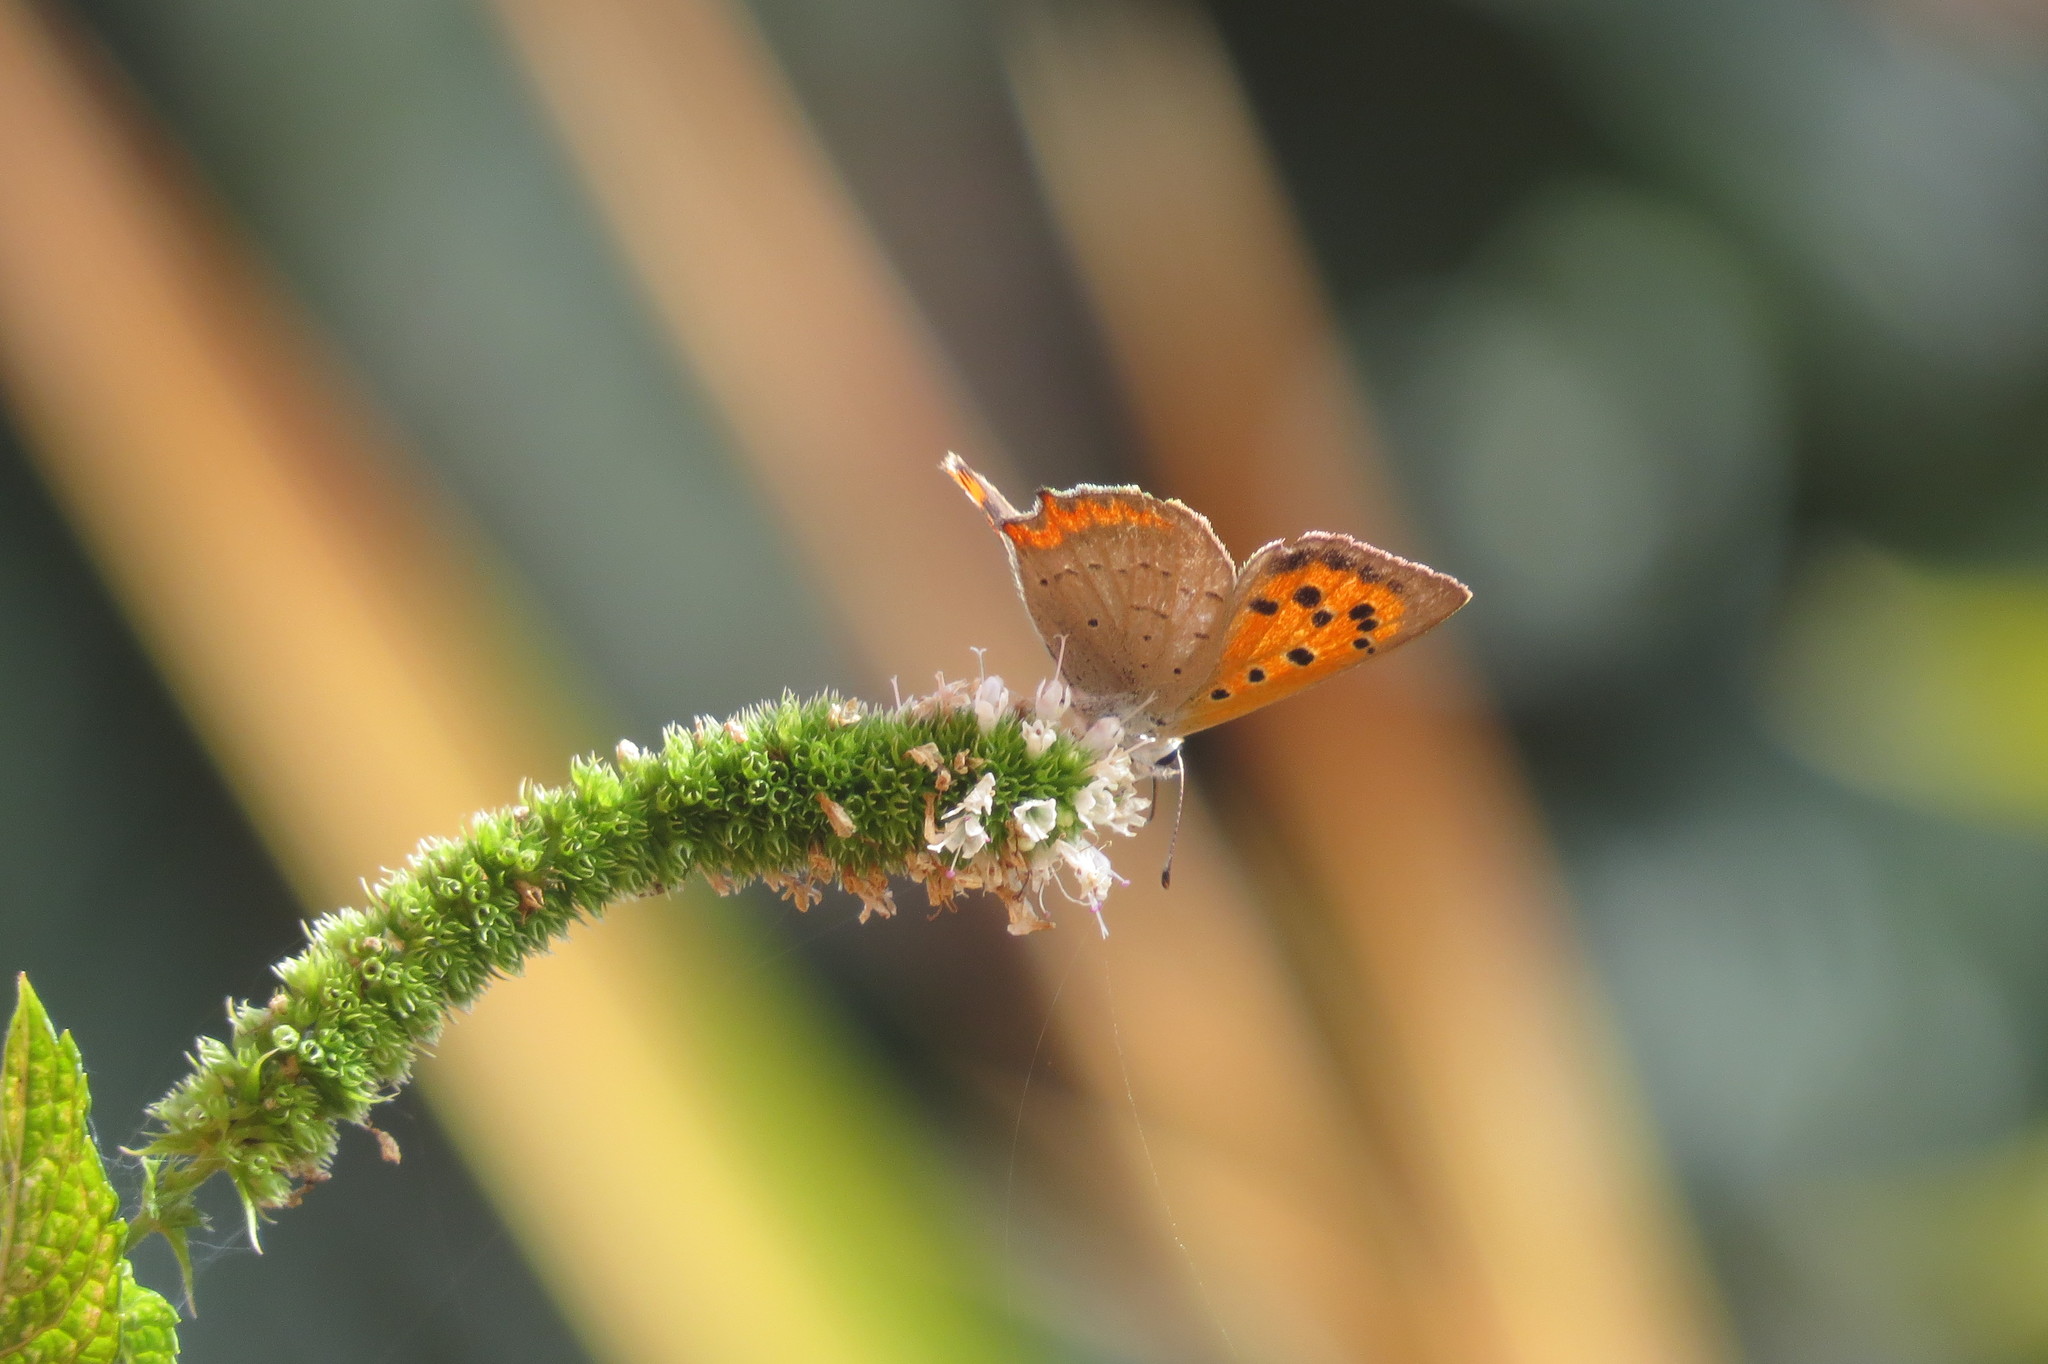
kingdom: Animalia
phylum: Arthropoda
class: Insecta
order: Lepidoptera
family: Lycaenidae
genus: Lycaena
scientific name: Lycaena phlaeas
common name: Small copper
